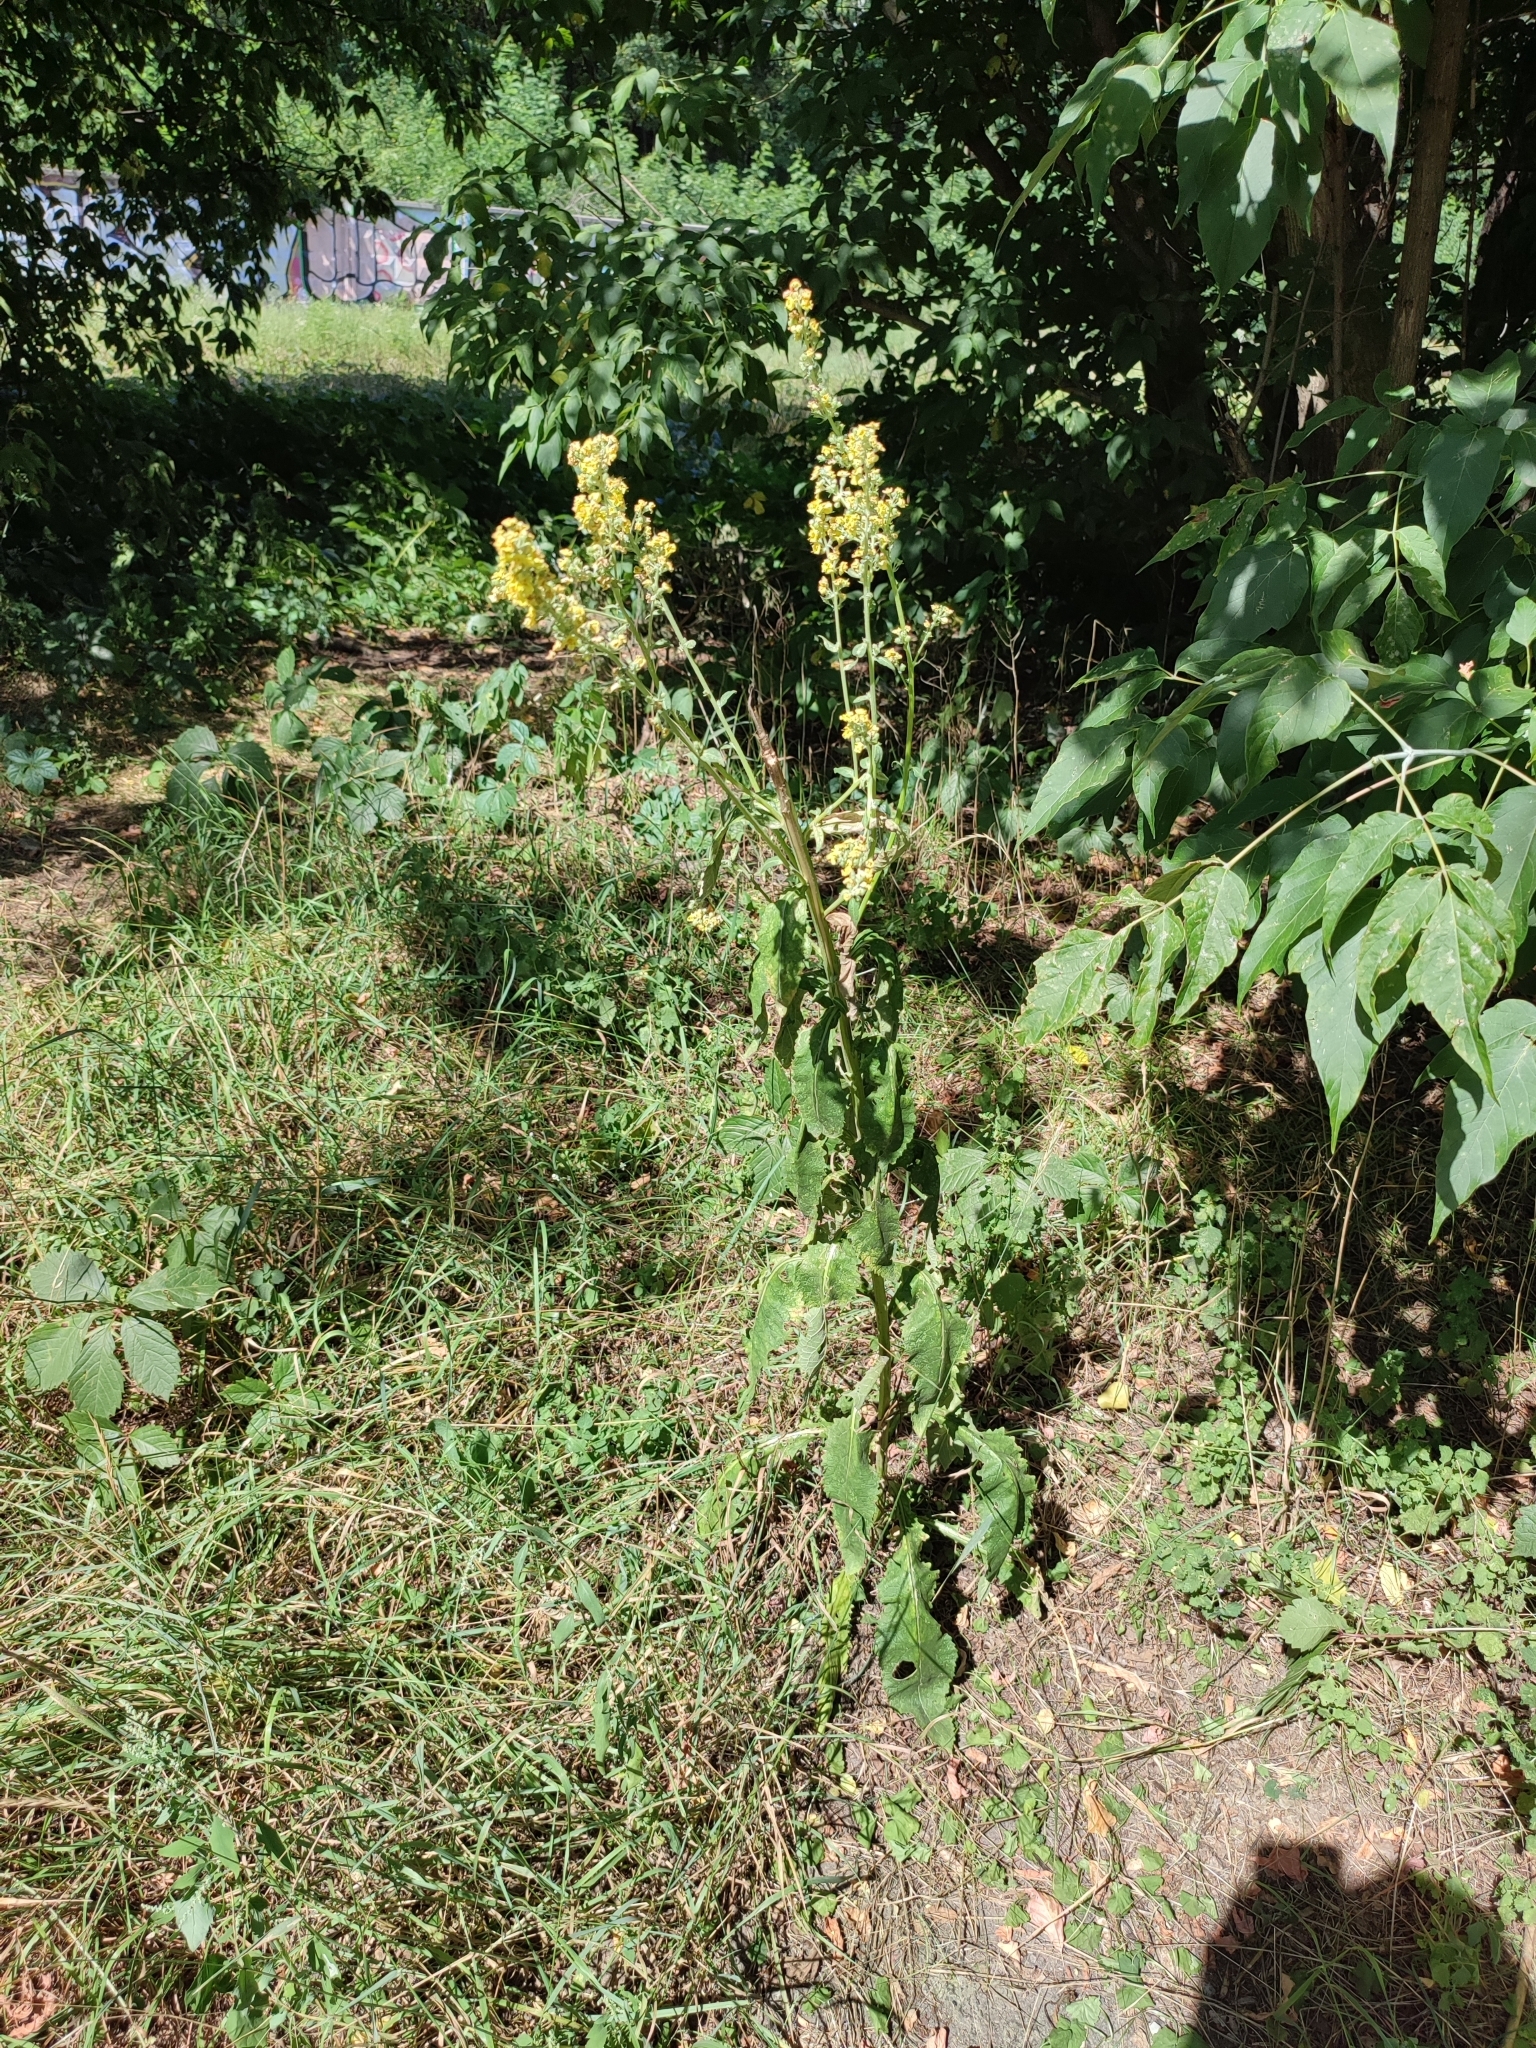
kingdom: Plantae
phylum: Tracheophyta
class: Magnoliopsida
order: Lamiales
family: Scrophulariaceae
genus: Verbascum
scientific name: Verbascum lychnitis
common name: White mullein
